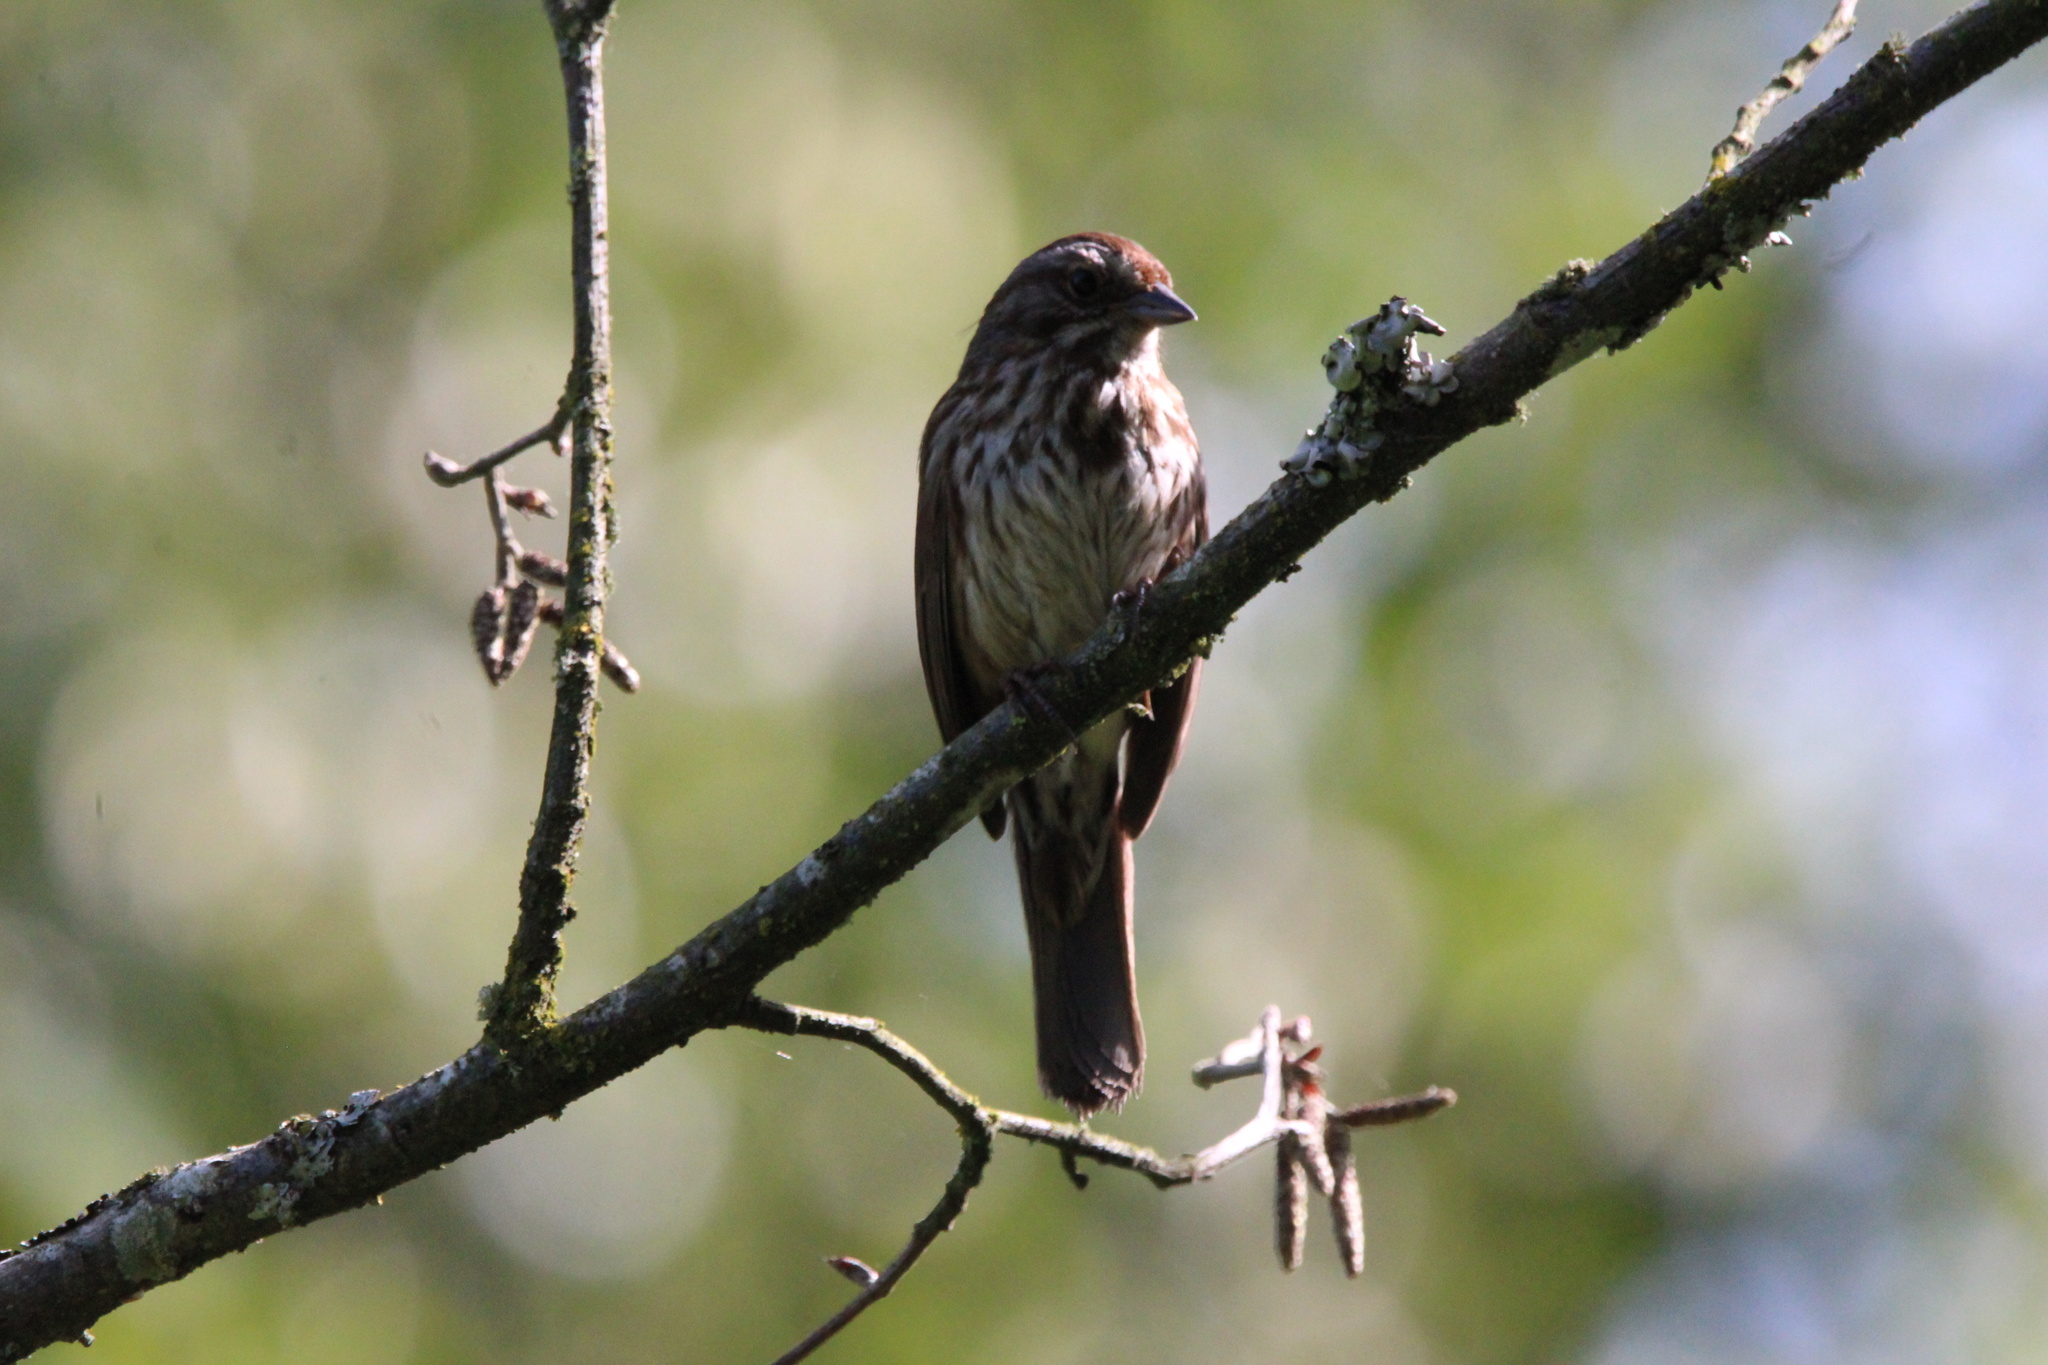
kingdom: Animalia
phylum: Chordata
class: Aves
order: Passeriformes
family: Passerellidae
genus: Melospiza
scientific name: Melospiza melodia
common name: Song sparrow
